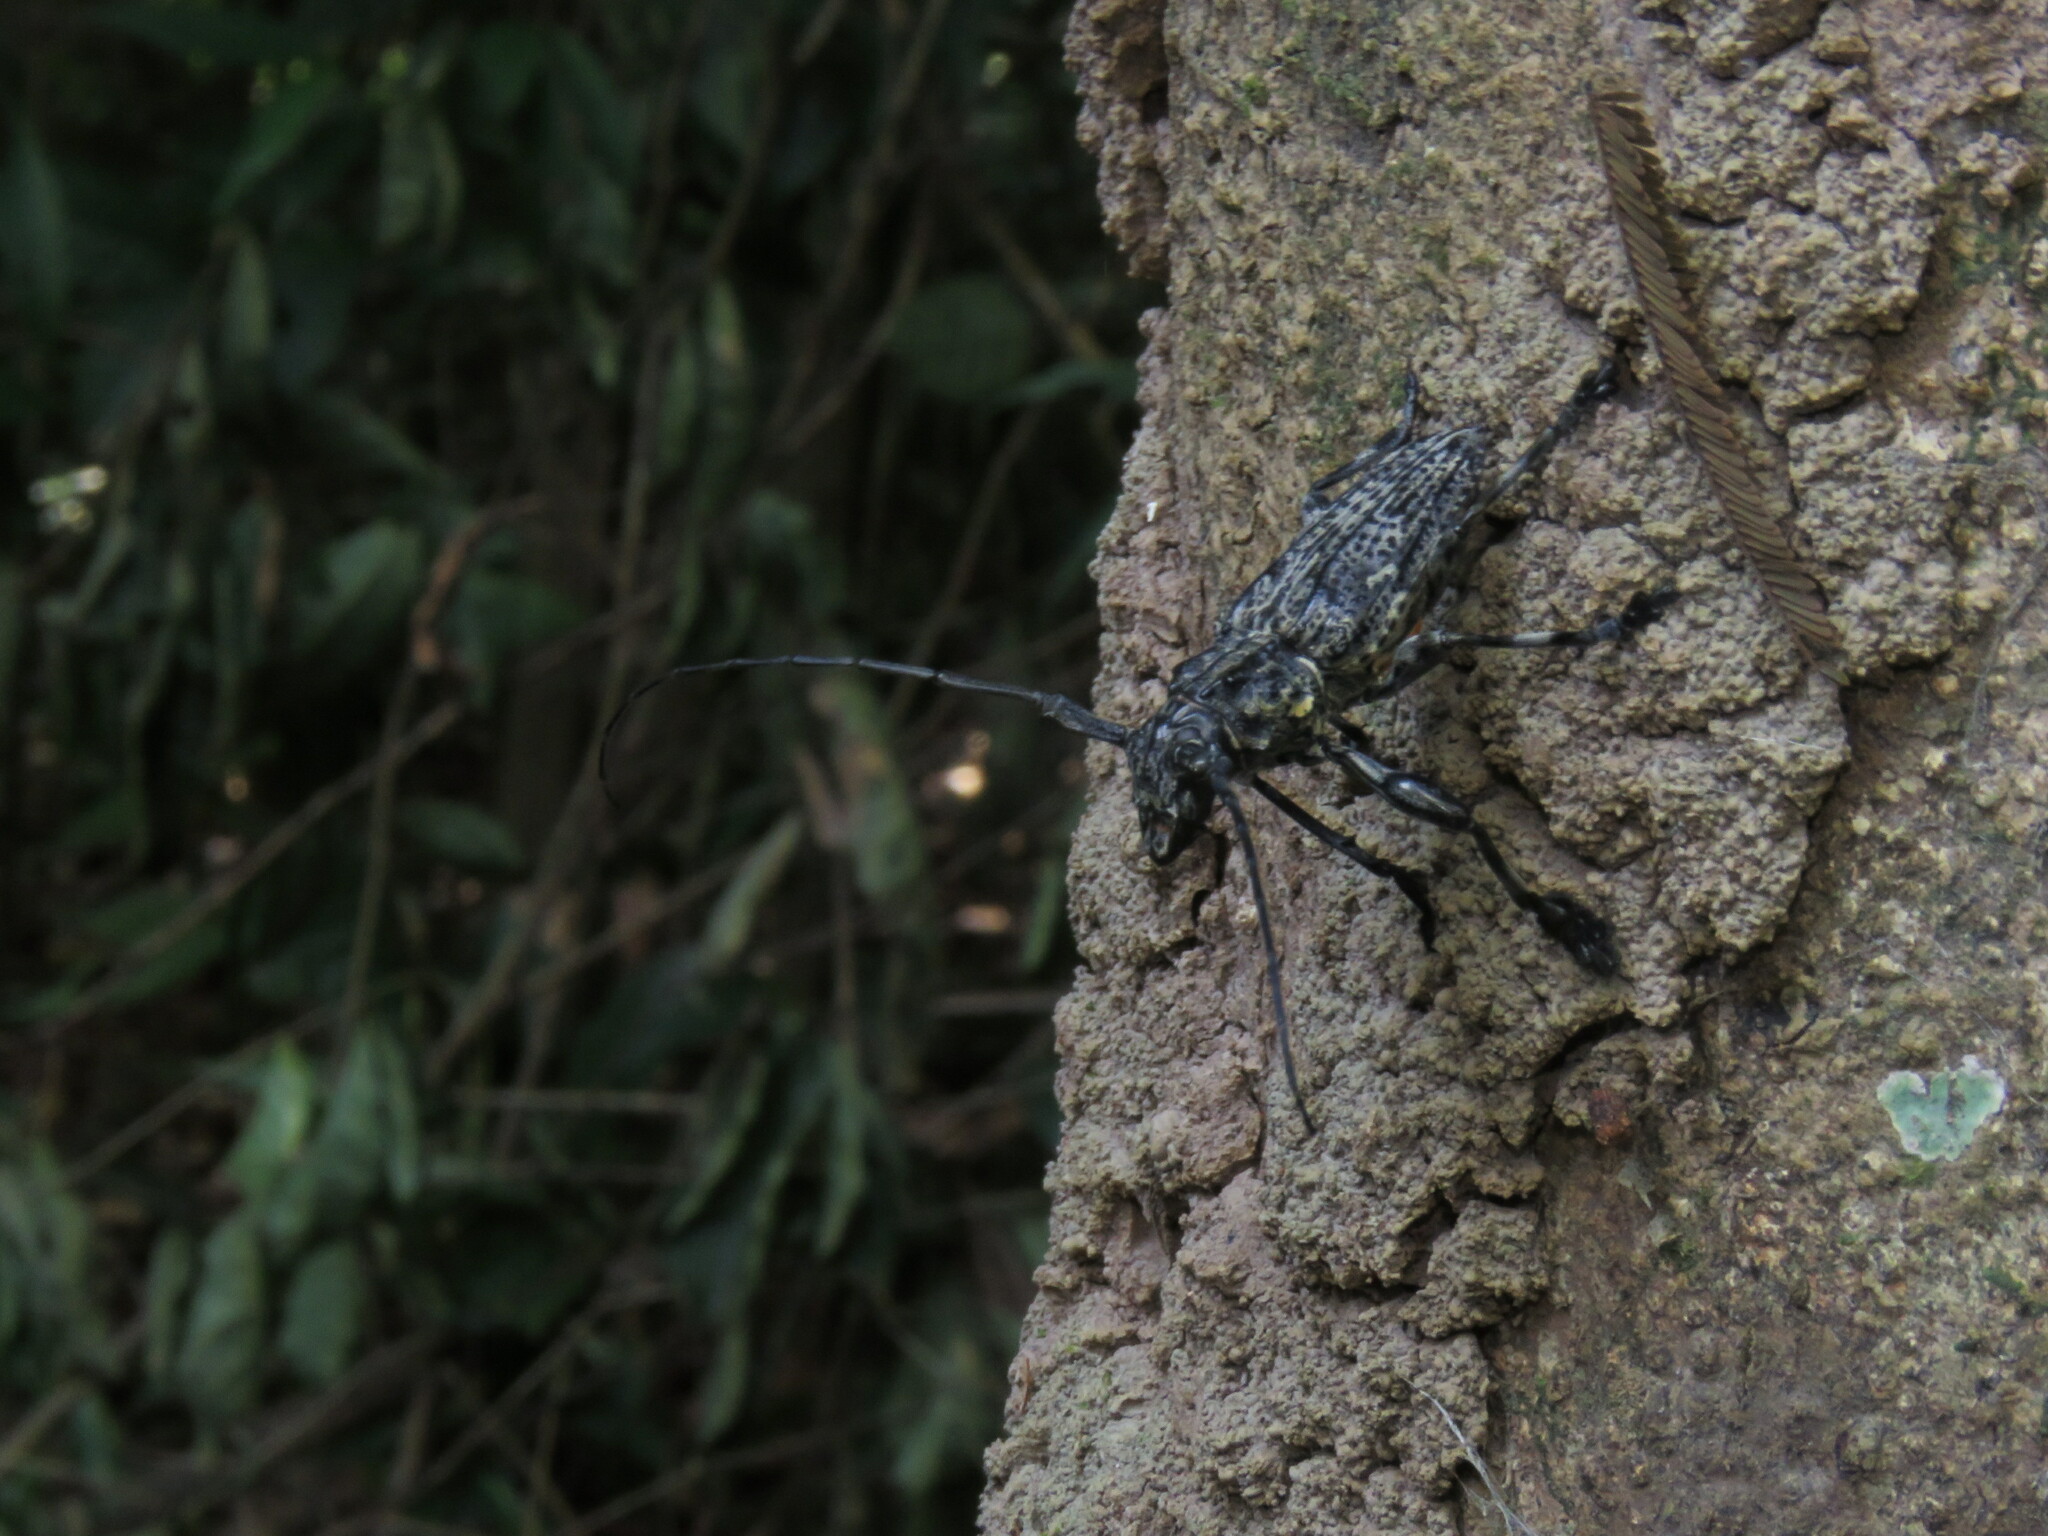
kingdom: Animalia
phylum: Arthropoda
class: Insecta
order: Coleoptera
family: Cerambycidae
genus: Steirastoma
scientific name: Steirastoma breve
